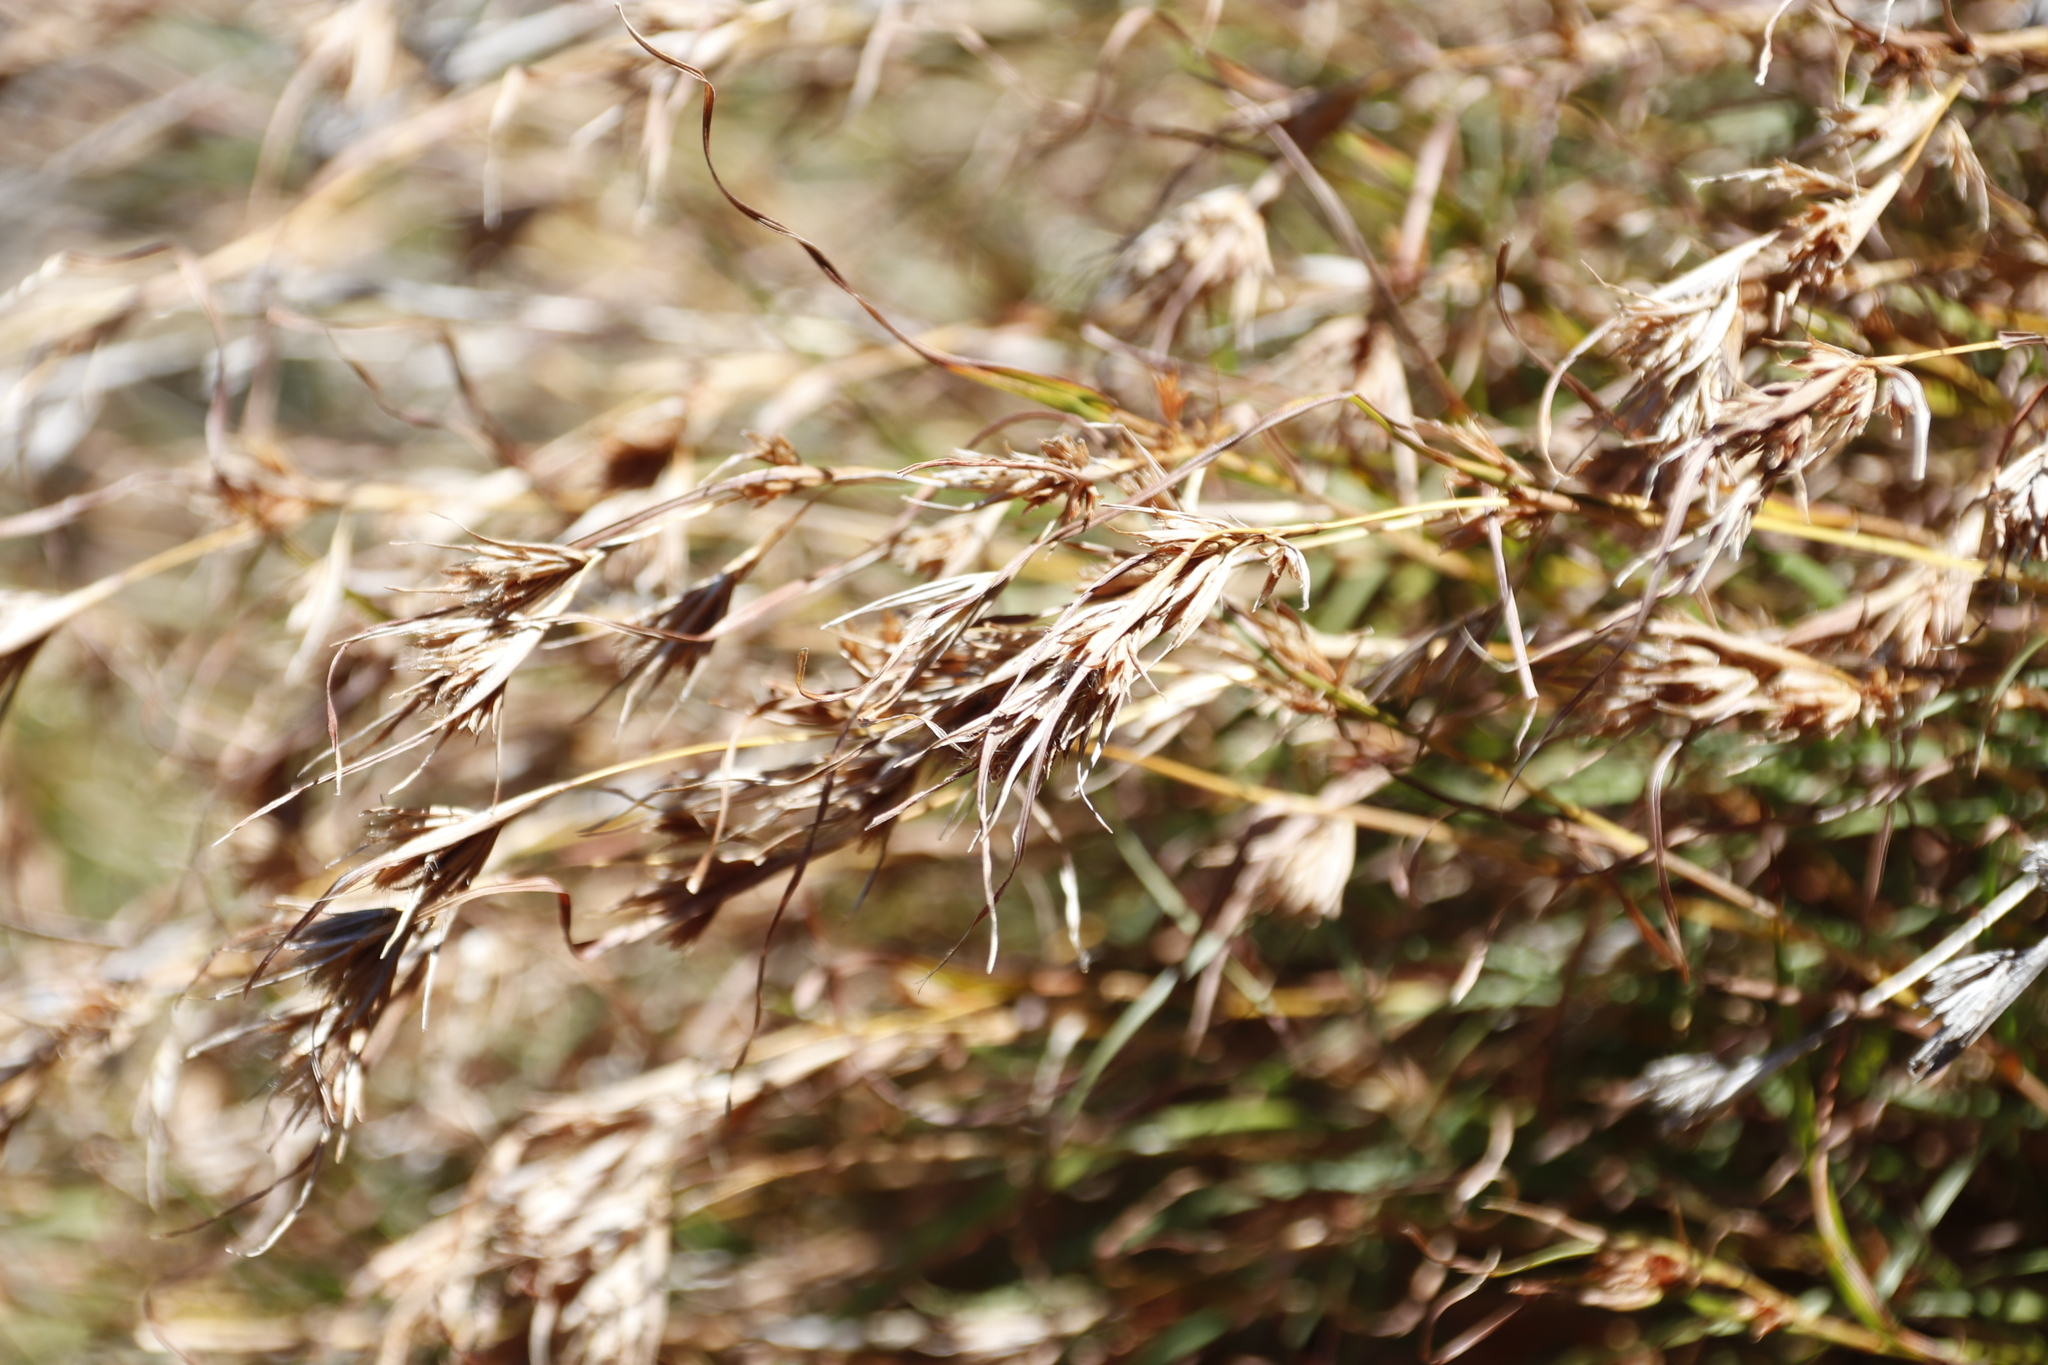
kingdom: Plantae
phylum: Tracheophyta
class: Liliopsida
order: Poales
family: Poaceae
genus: Themeda
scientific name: Themeda triandra
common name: Kangaroo grass
